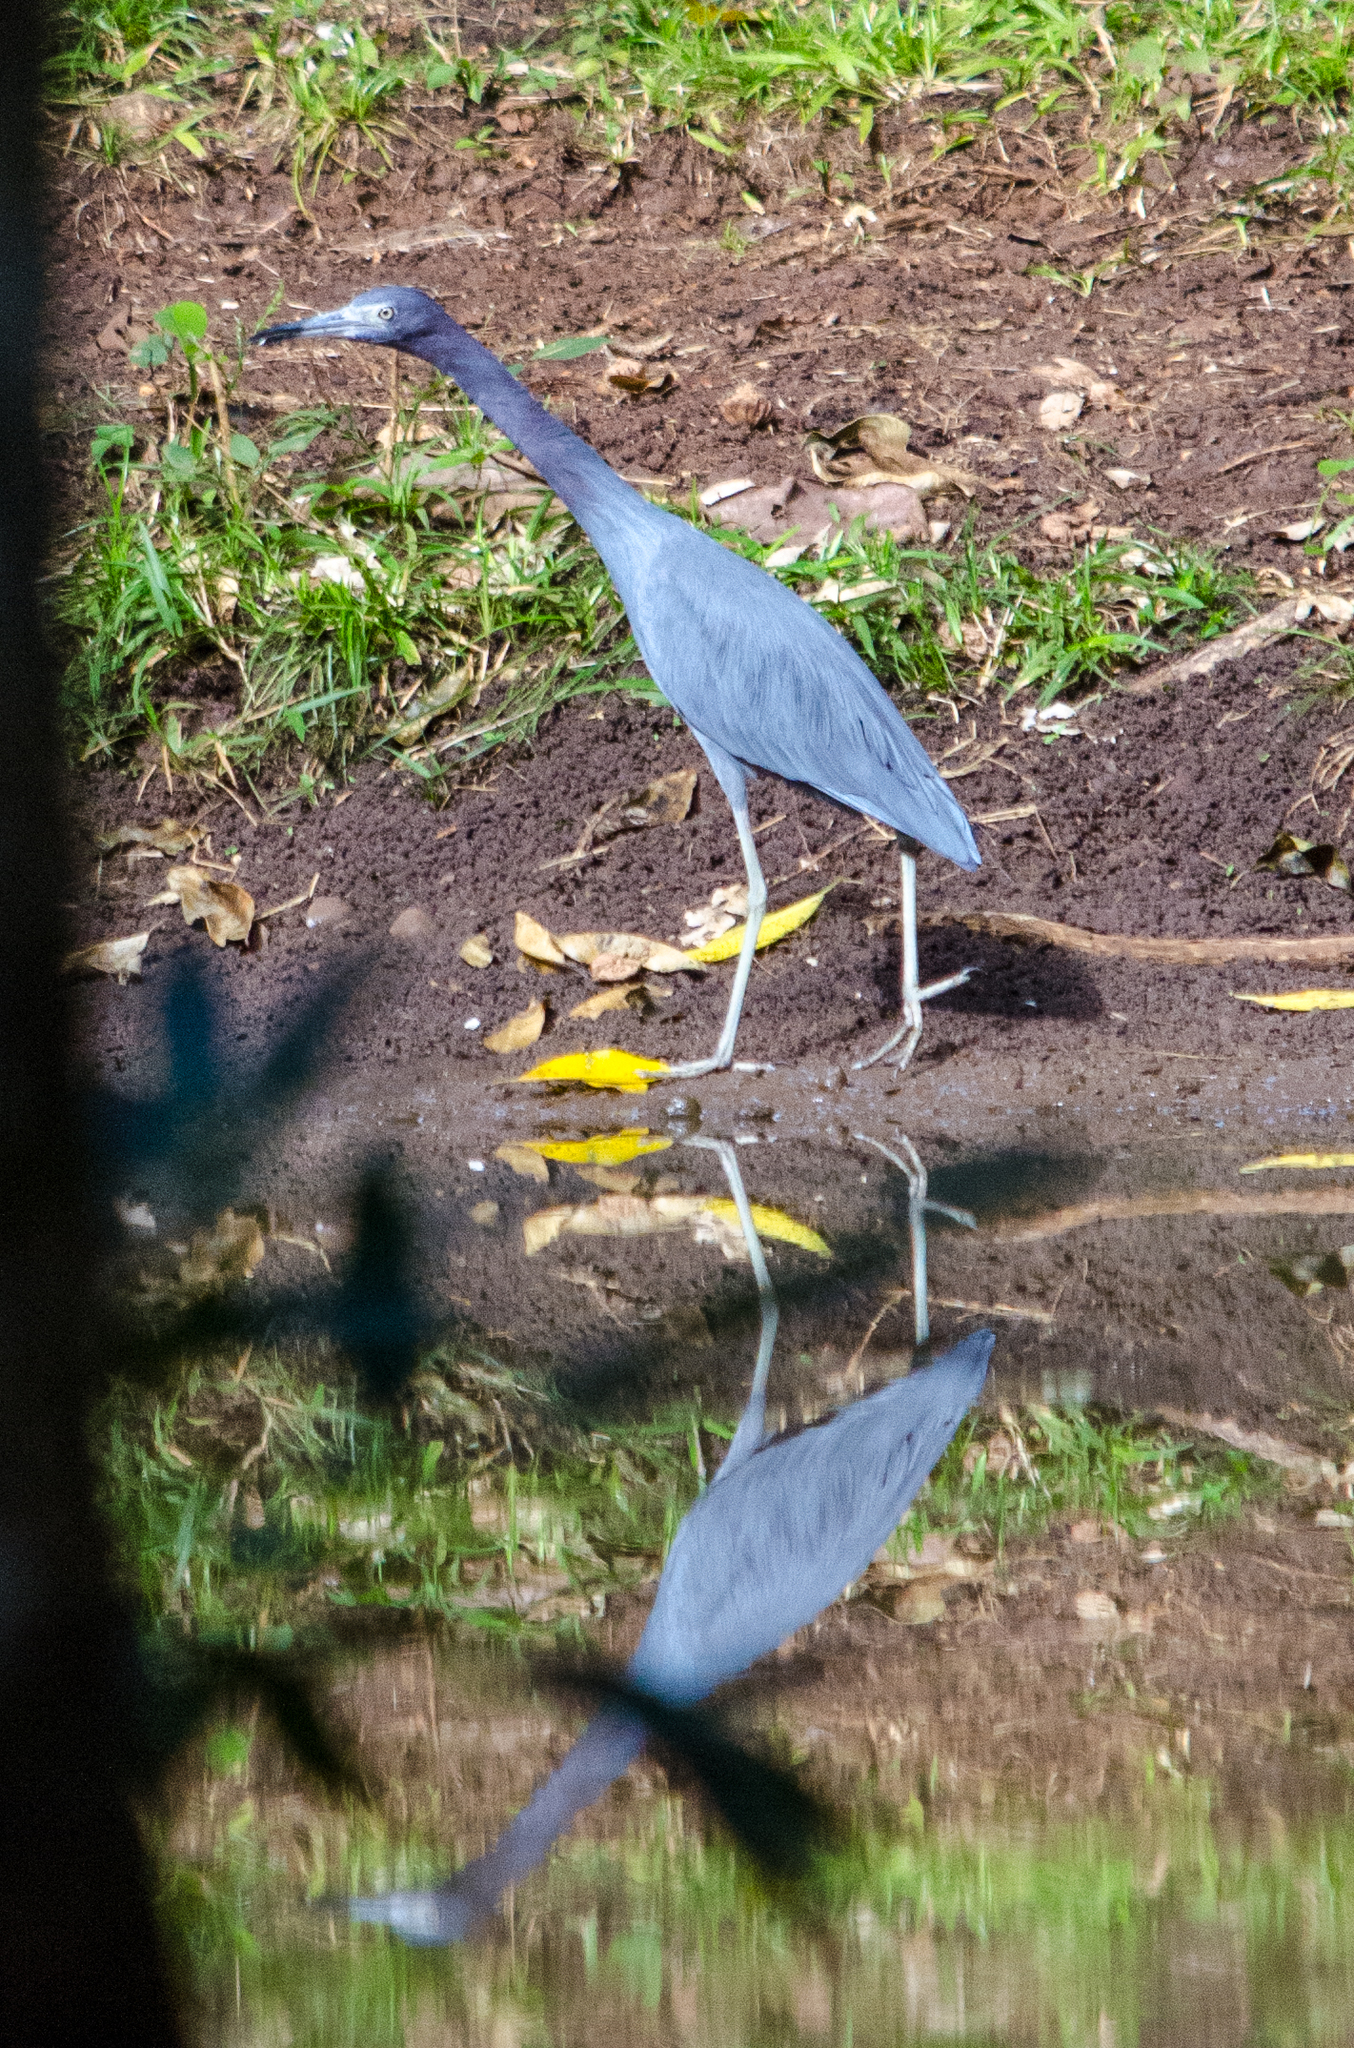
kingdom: Animalia
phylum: Chordata
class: Aves
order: Pelecaniformes
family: Ardeidae
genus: Egretta
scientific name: Egretta caerulea
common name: Little blue heron
